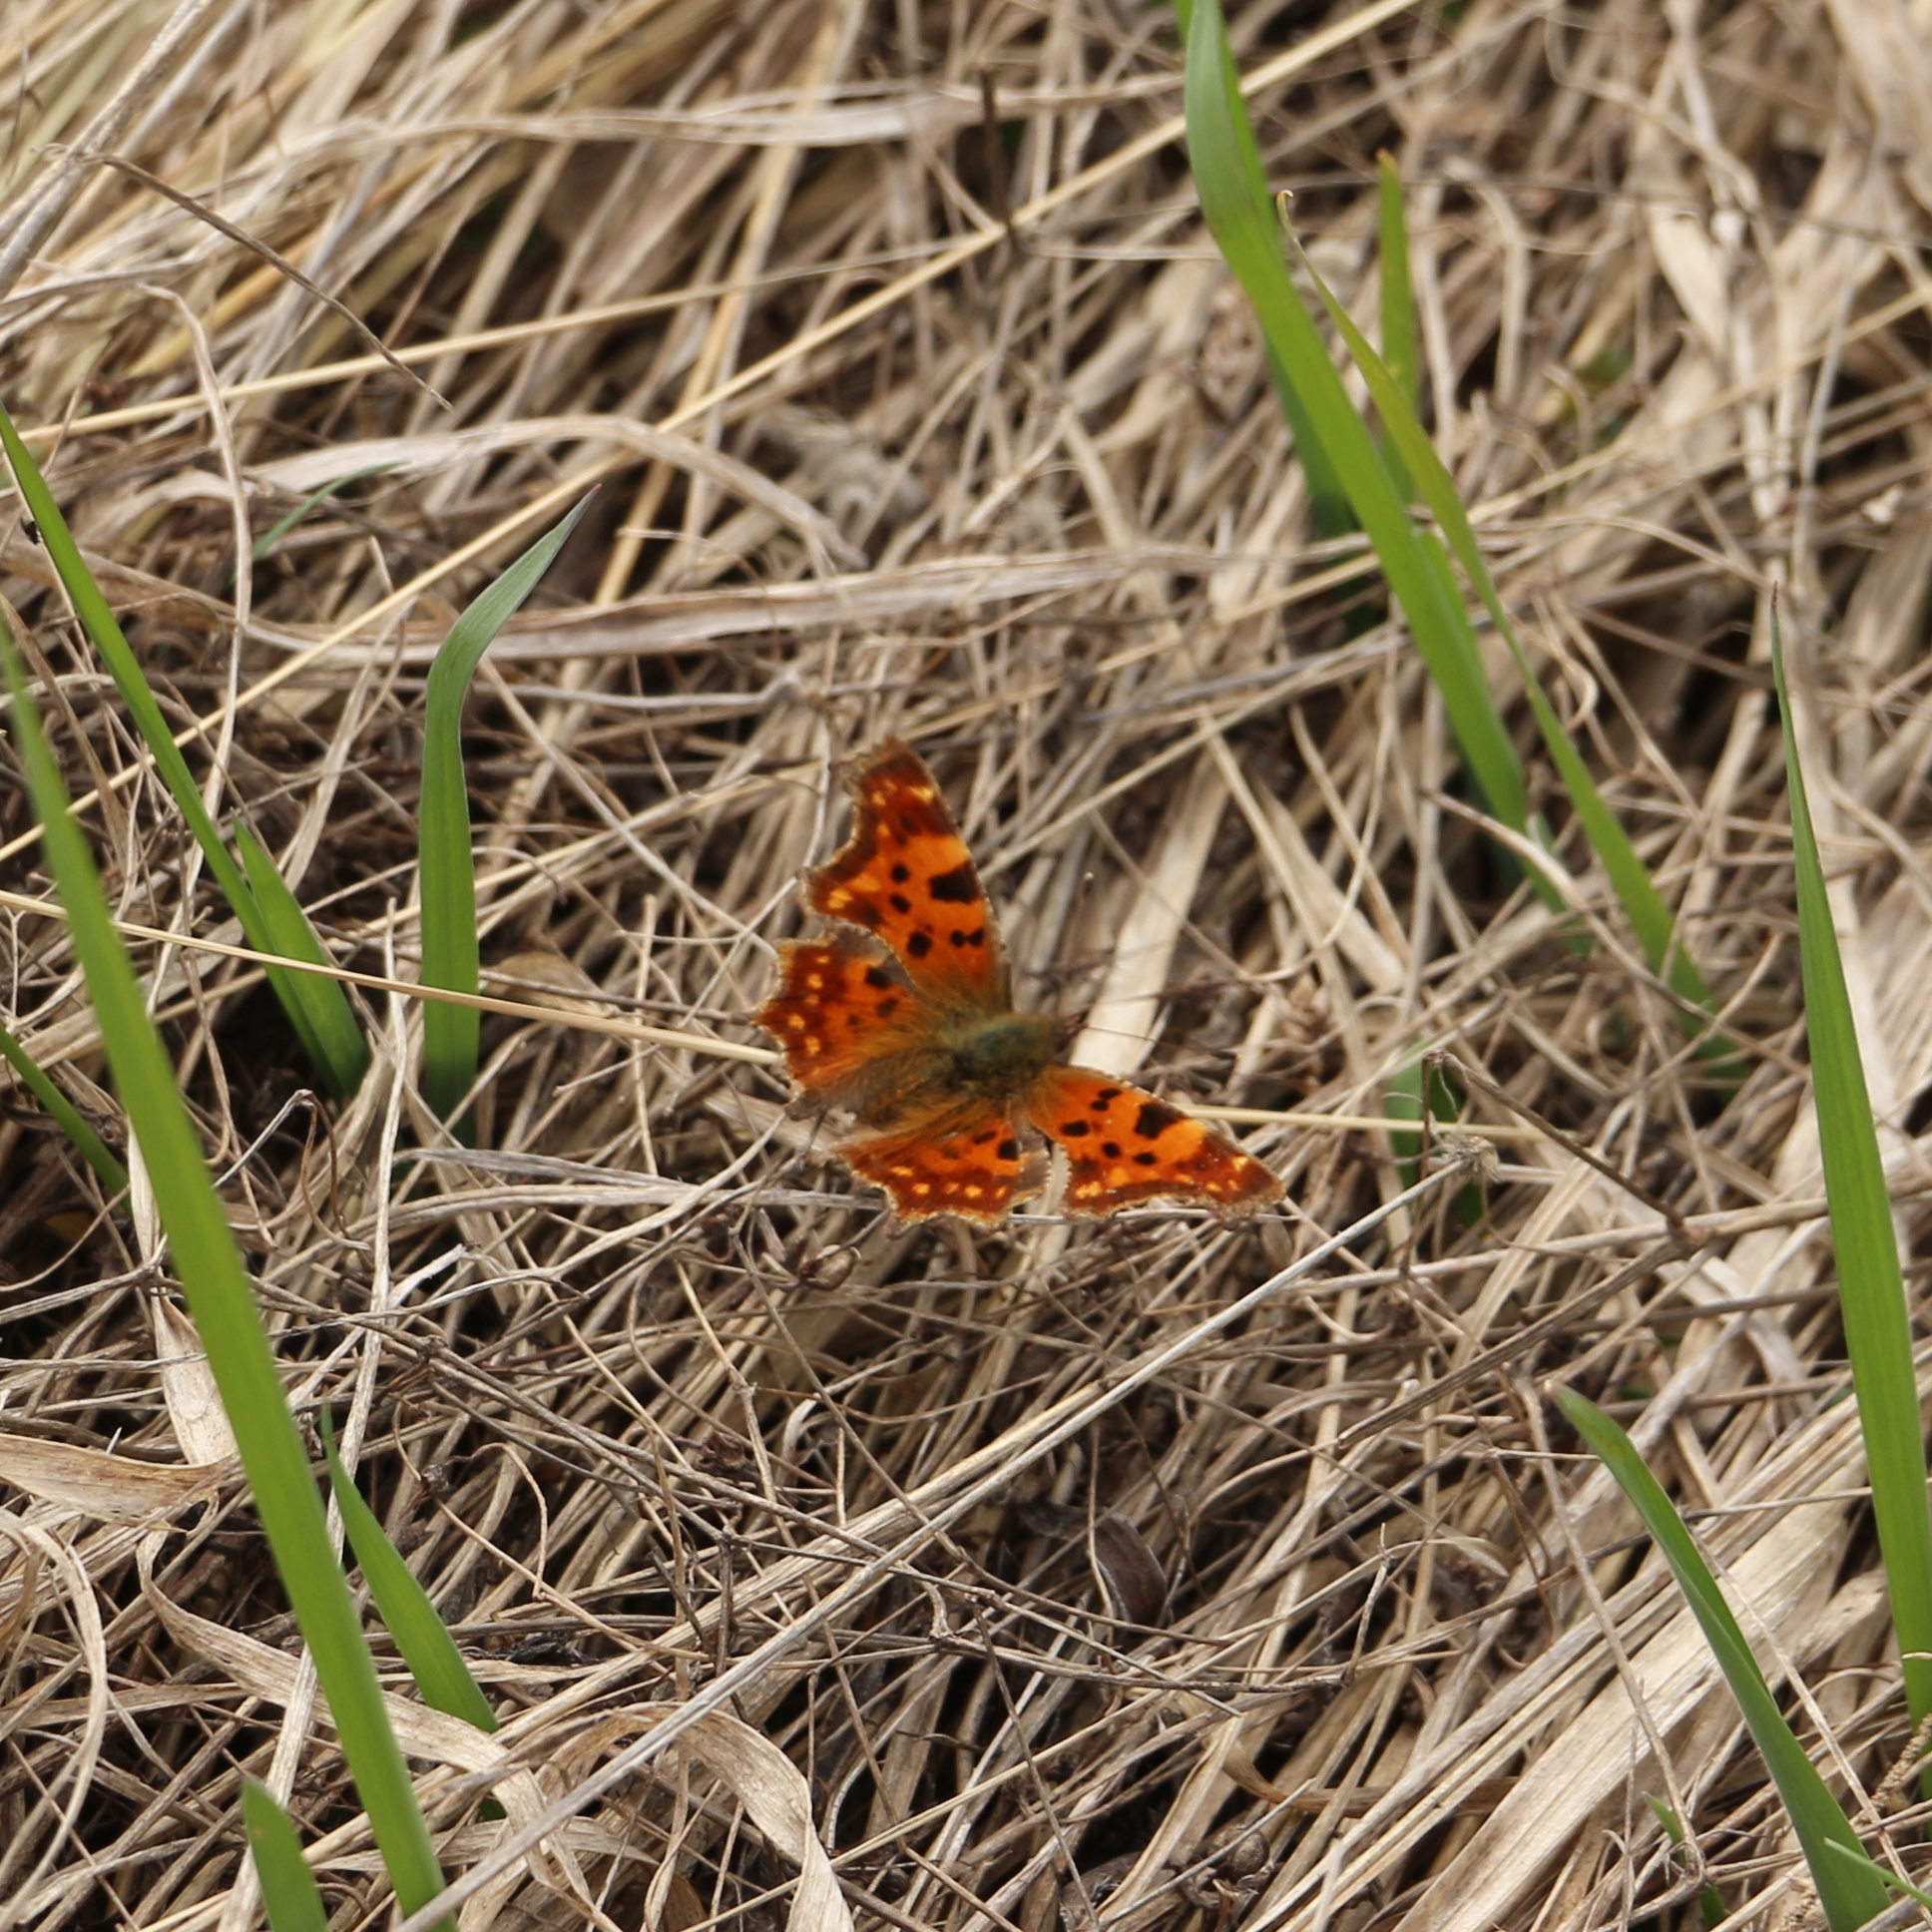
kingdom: Animalia
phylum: Arthropoda
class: Insecta
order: Lepidoptera
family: Nymphalidae
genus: Polygonia
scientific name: Polygonia c-album
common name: Comma
